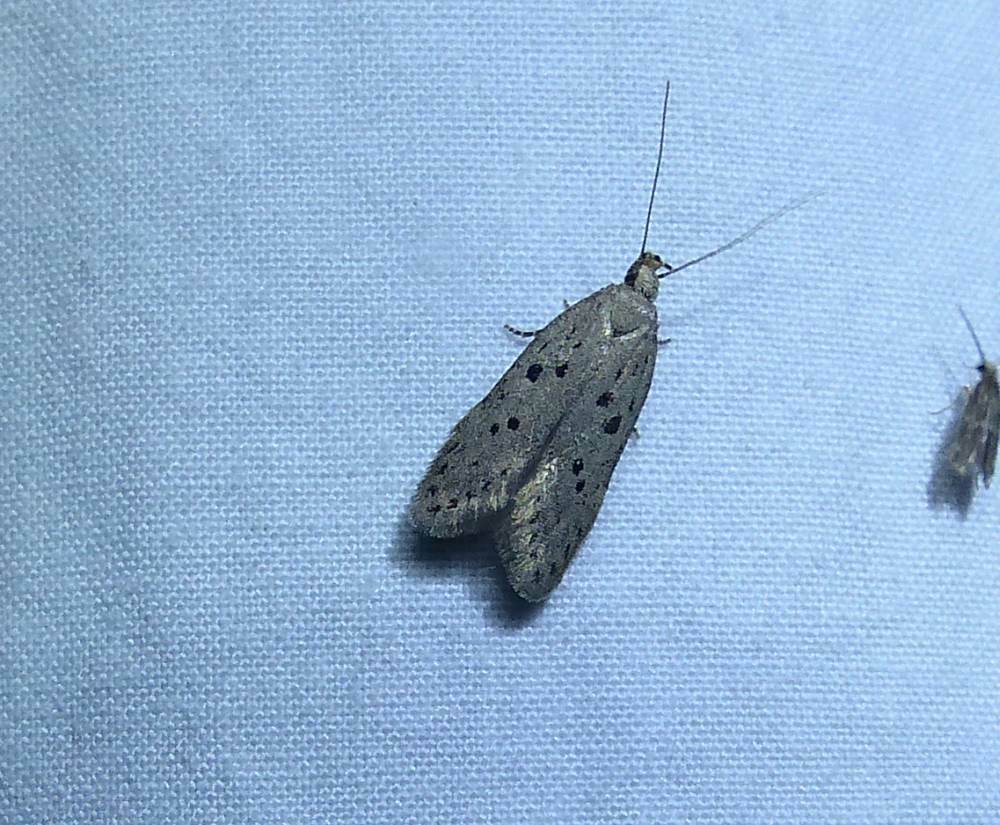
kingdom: Animalia
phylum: Arthropoda
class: Insecta
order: Lepidoptera
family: Gelechiidae
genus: Athrips
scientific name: Athrips mouffetella
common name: Dotted grey groundling
